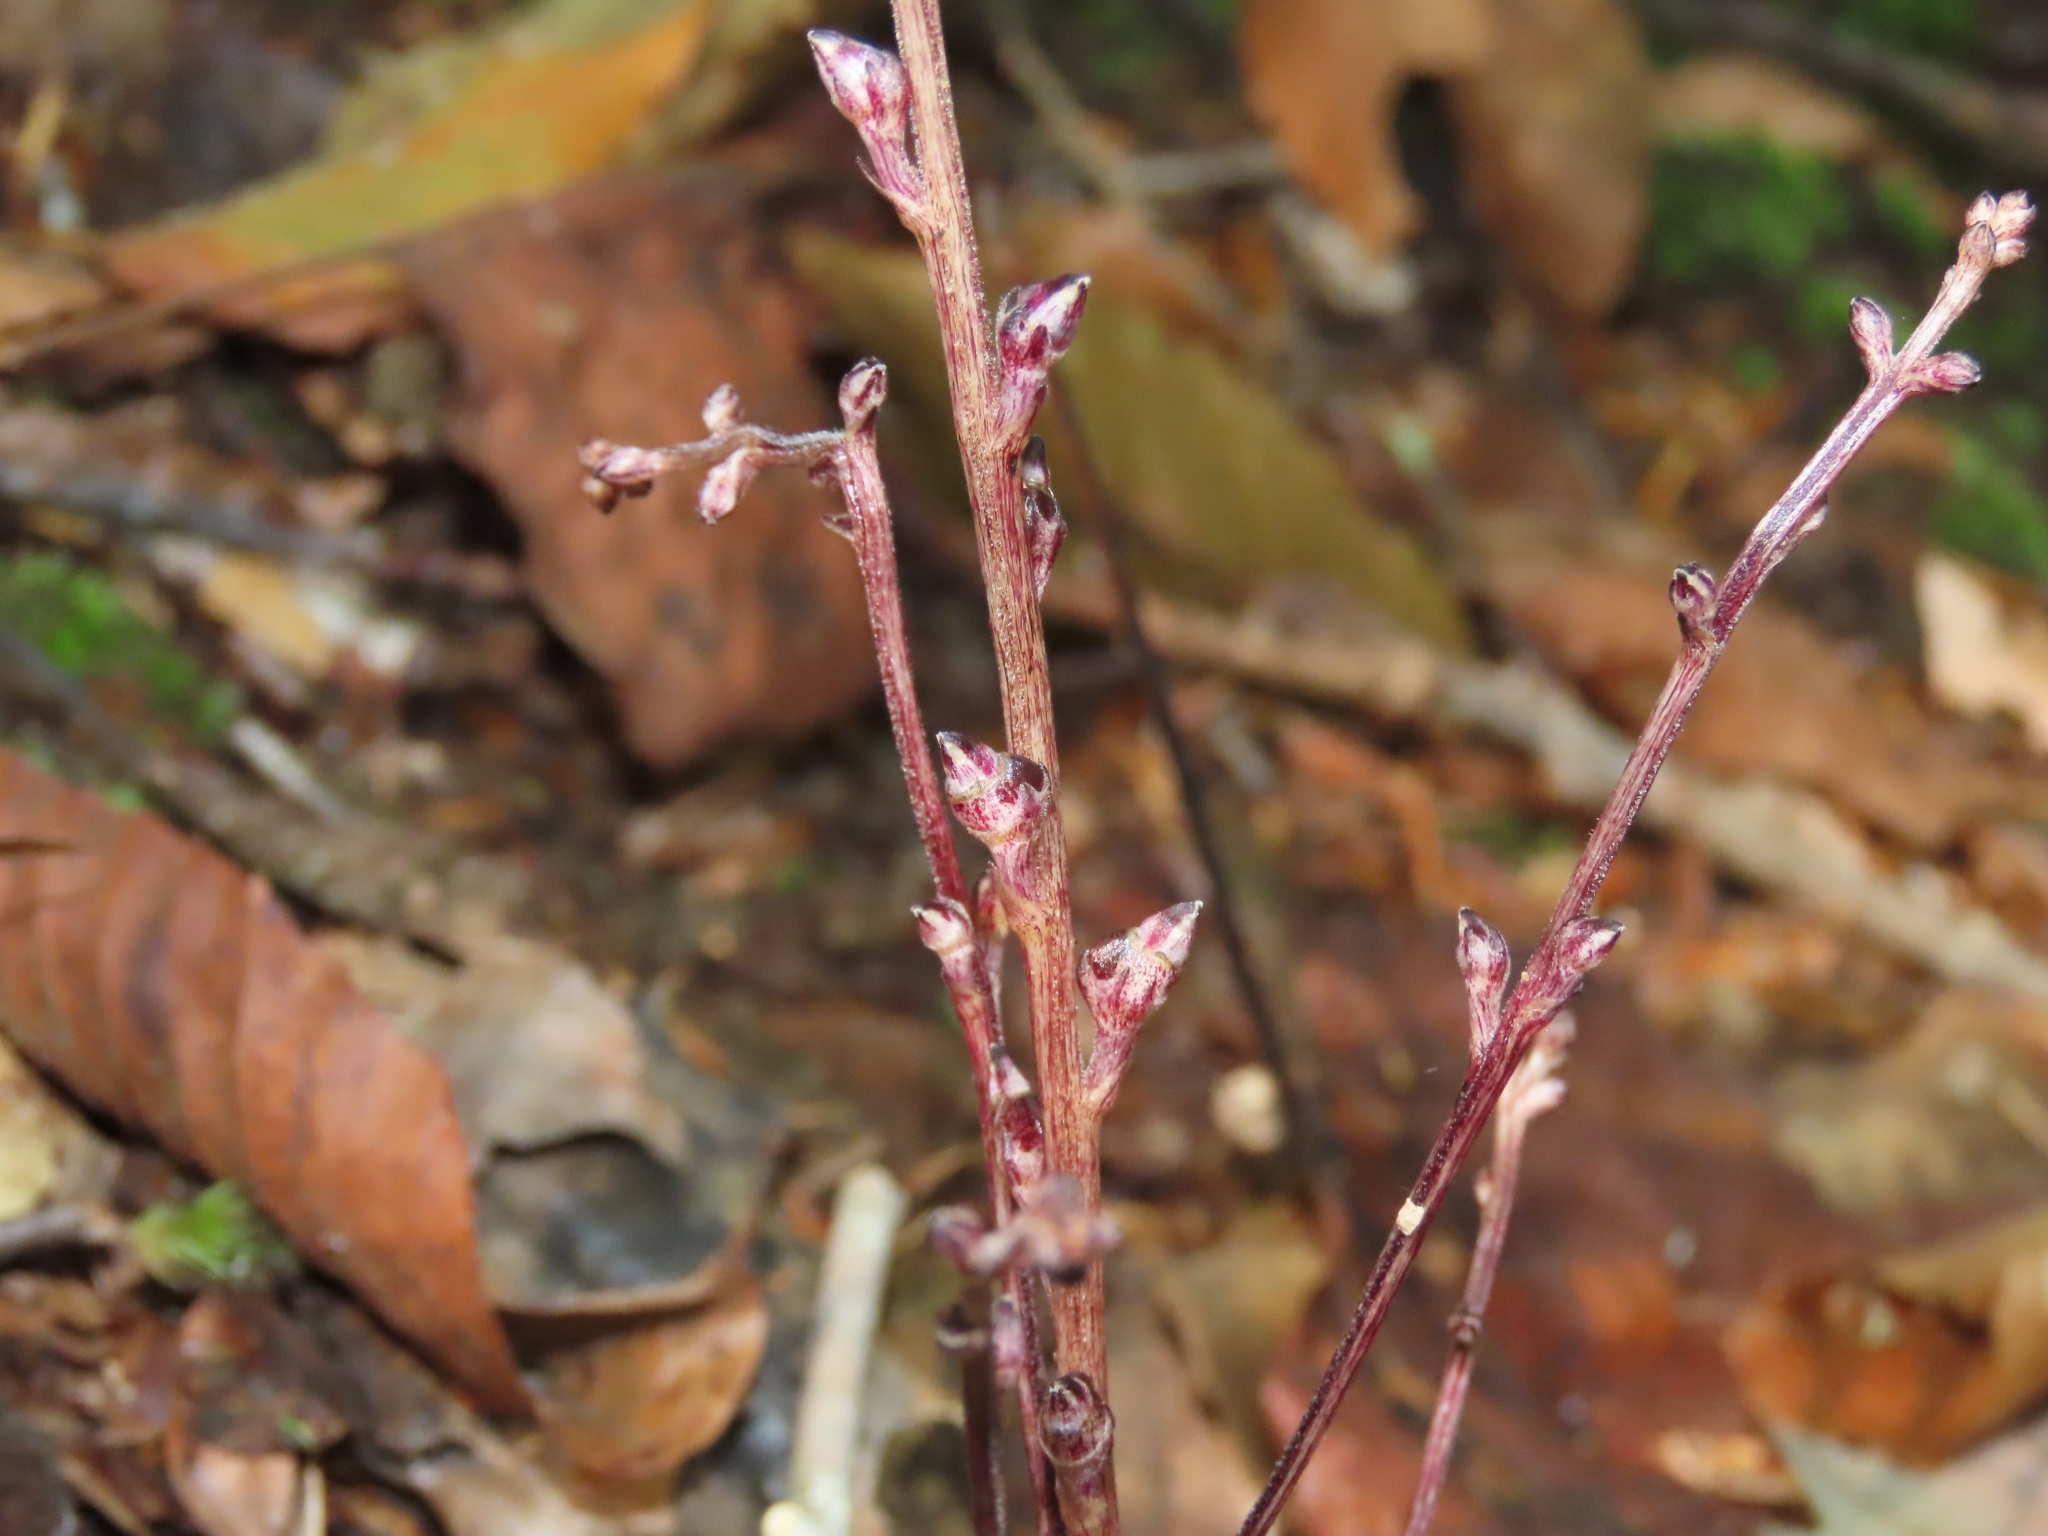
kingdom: Plantae
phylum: Tracheophyta
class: Magnoliopsida
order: Lamiales
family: Orobanchaceae
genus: Epifagus
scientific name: Epifagus virginiana
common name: Beechdrops
